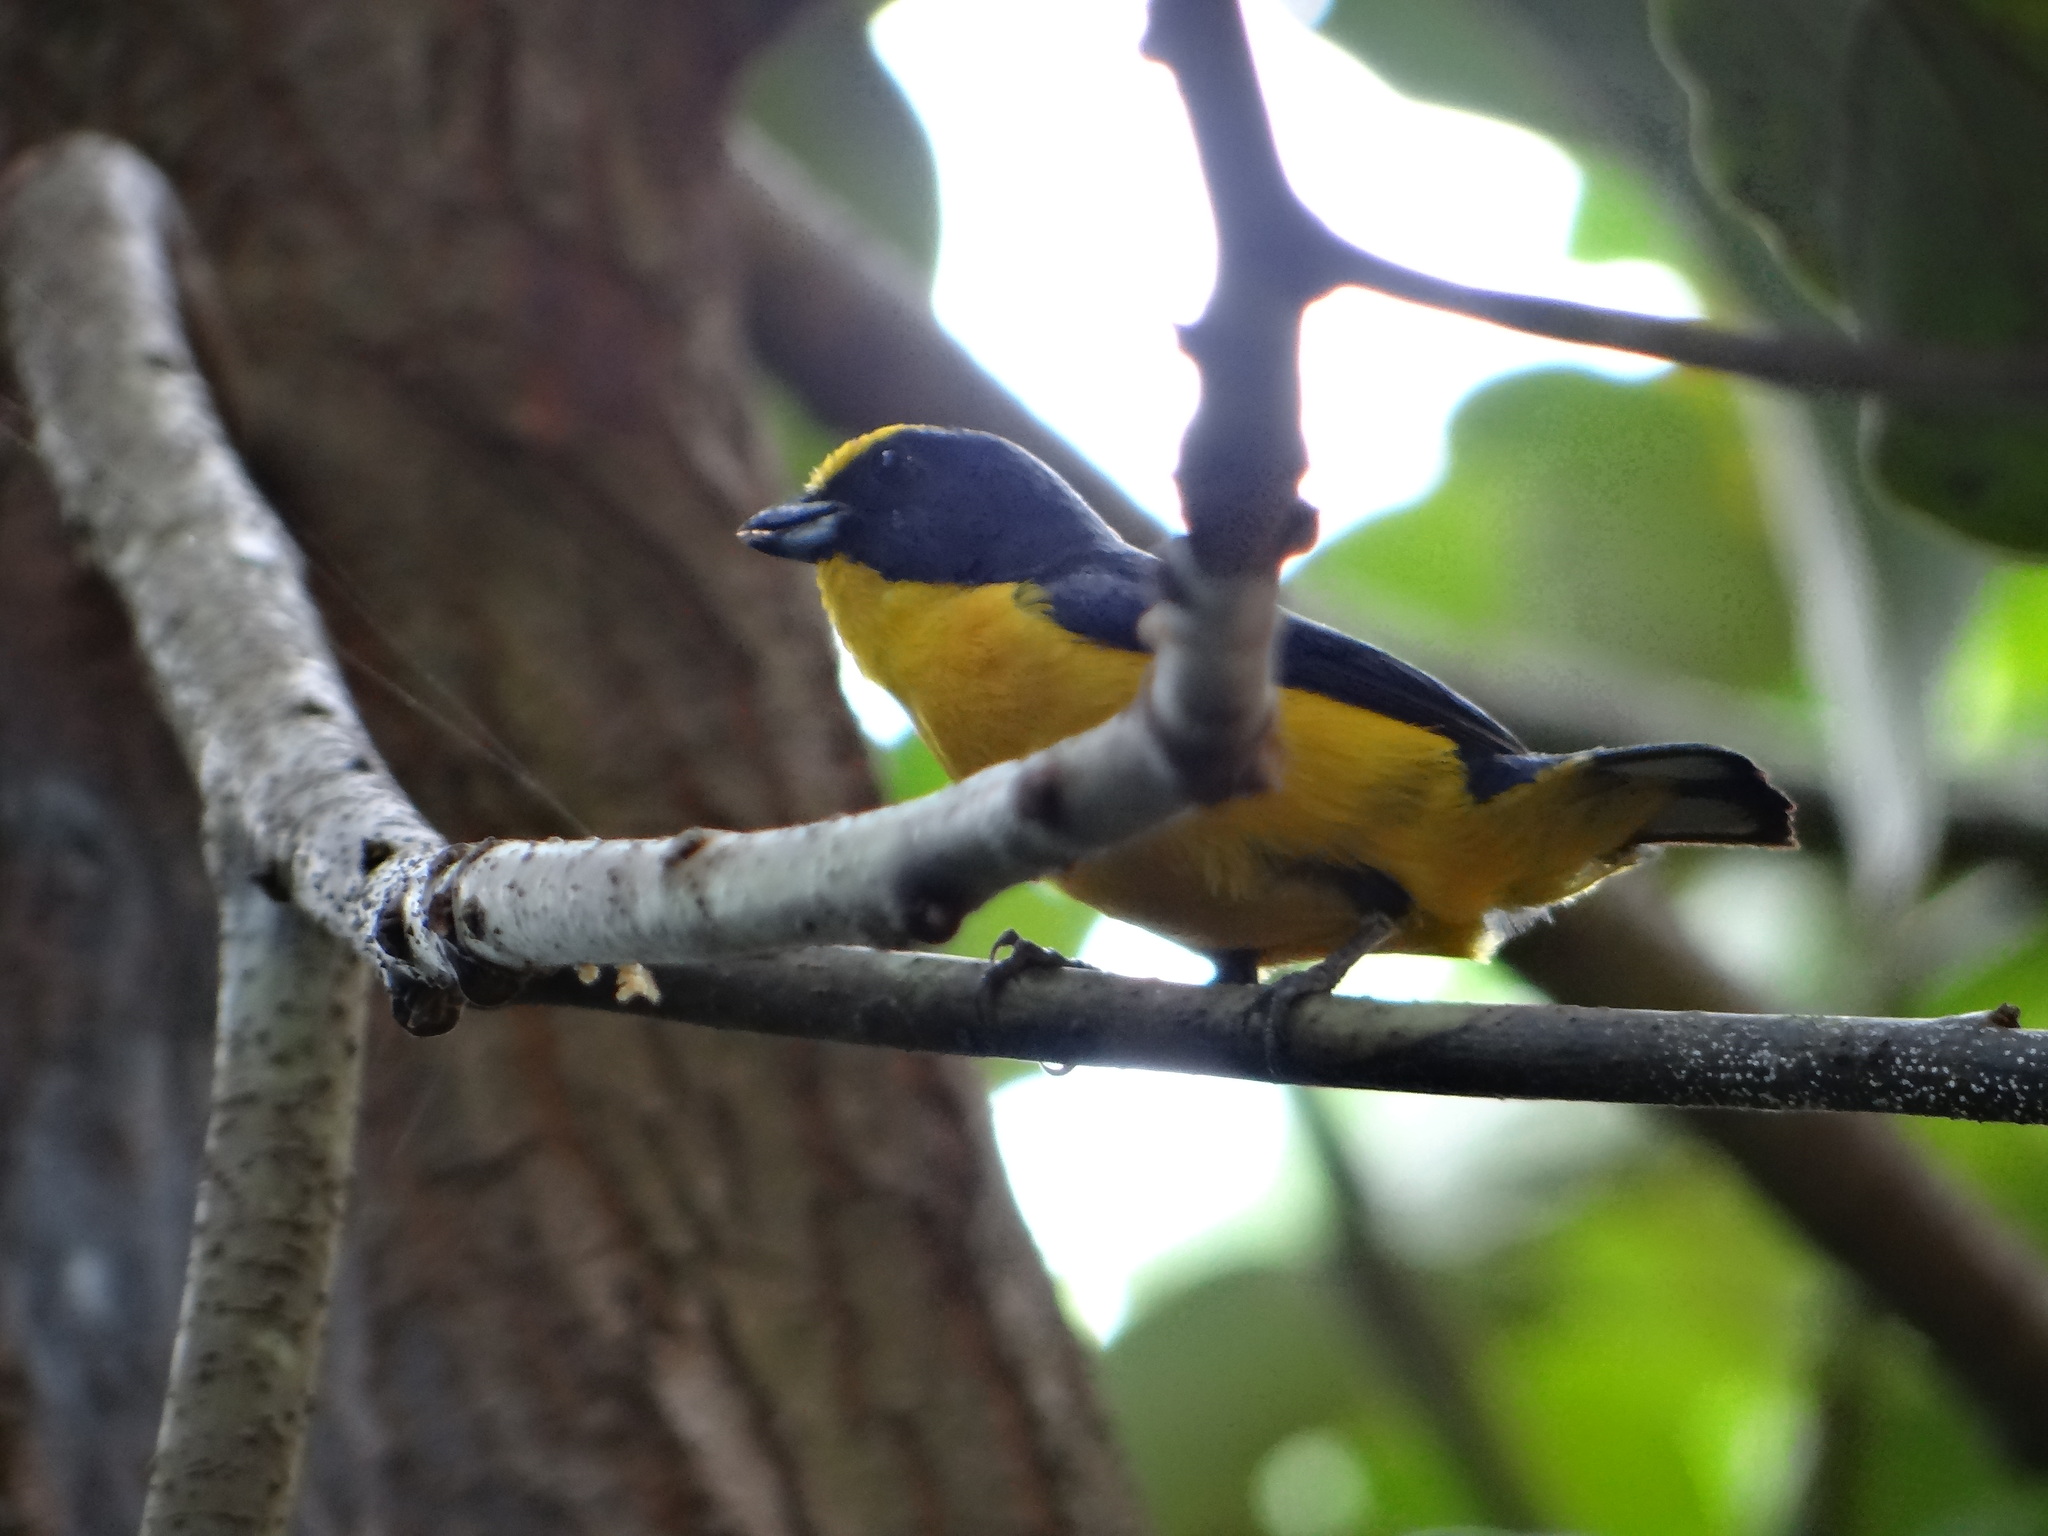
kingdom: Animalia
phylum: Chordata
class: Aves
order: Passeriformes
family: Fringillidae
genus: Euphonia
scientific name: Euphonia laniirostris
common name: Thick-billed euphonia
